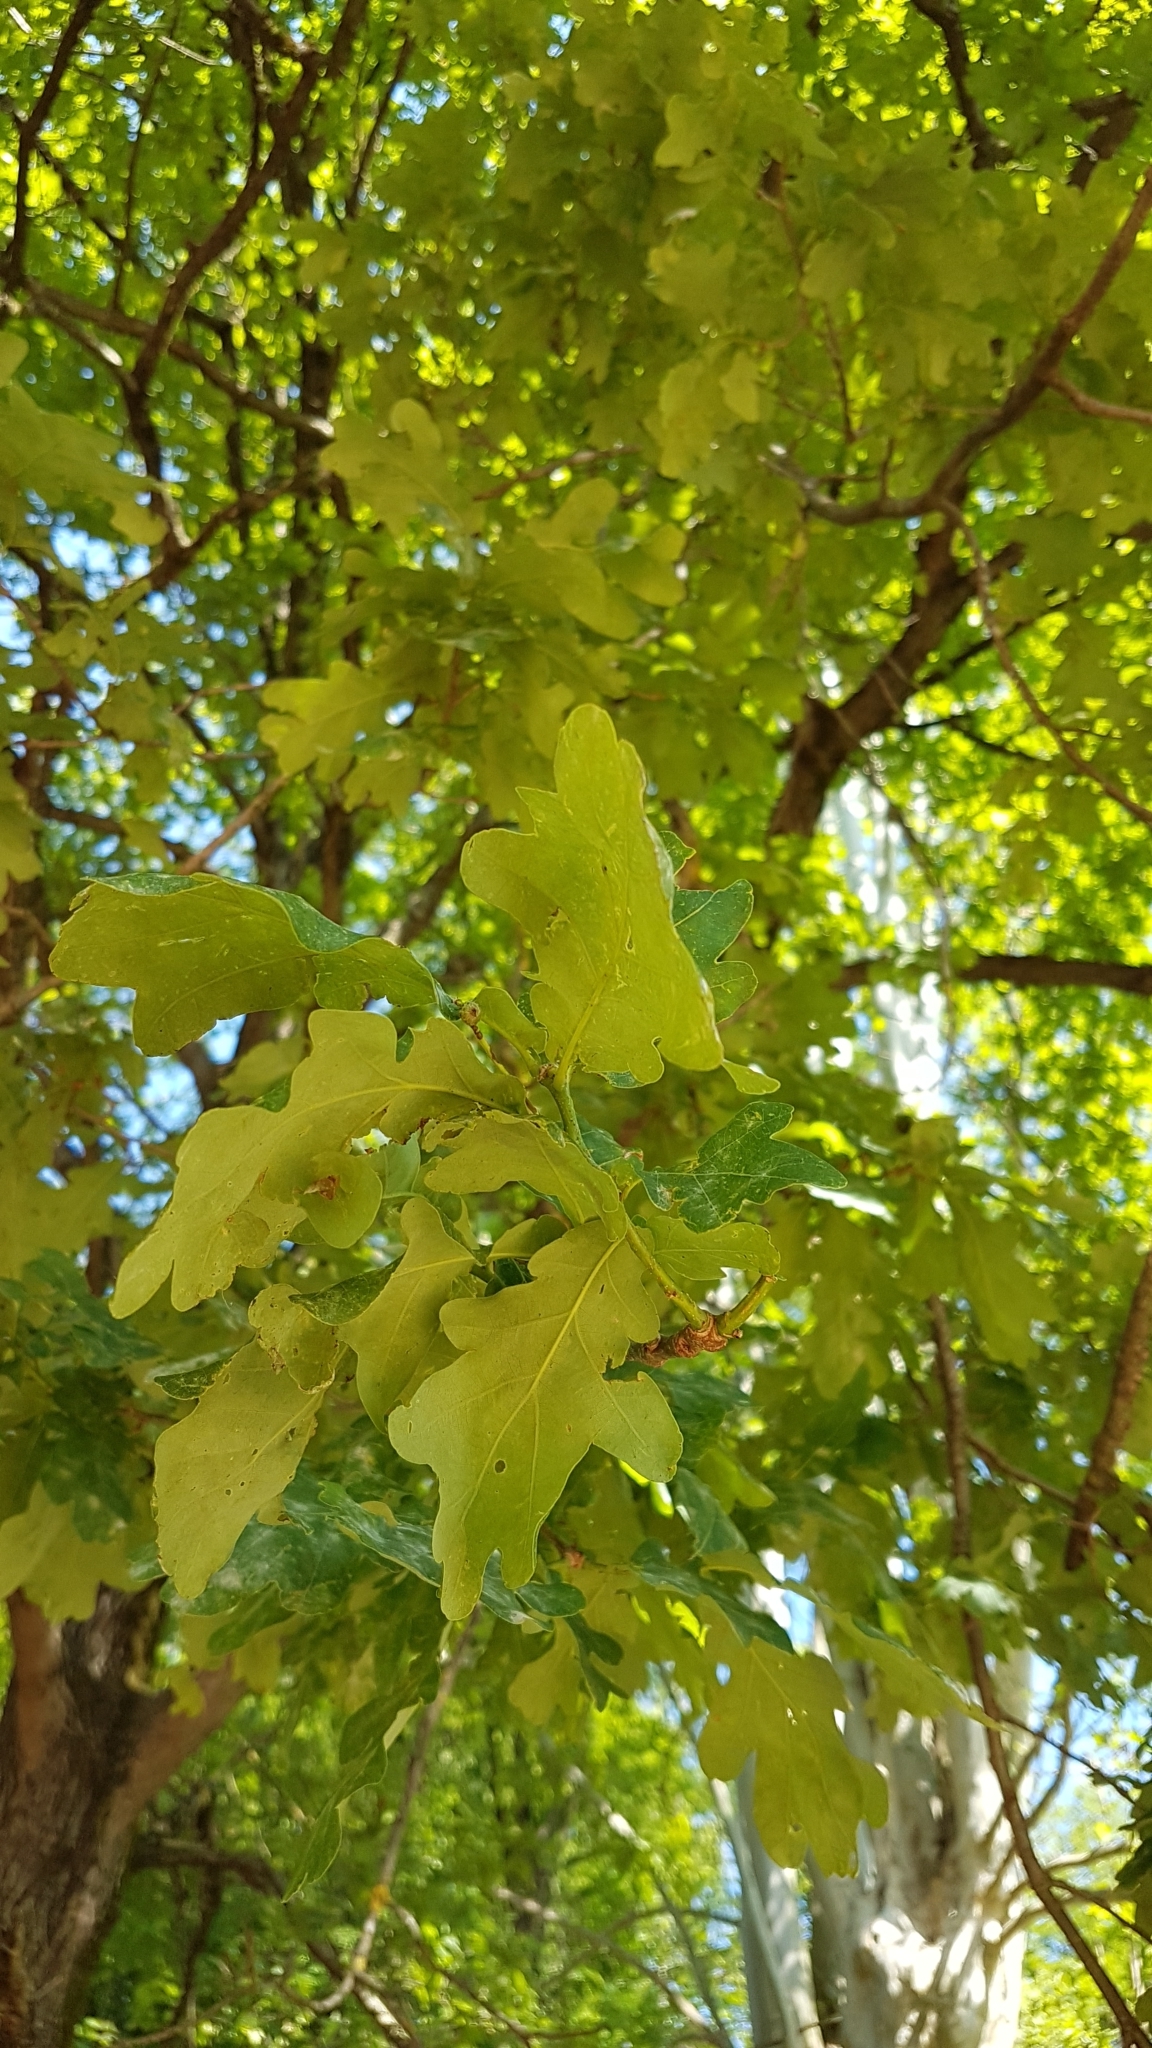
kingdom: Plantae
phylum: Tracheophyta
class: Magnoliopsida
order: Fagales
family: Fagaceae
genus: Quercus
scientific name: Quercus robur
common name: Pedunculate oak
